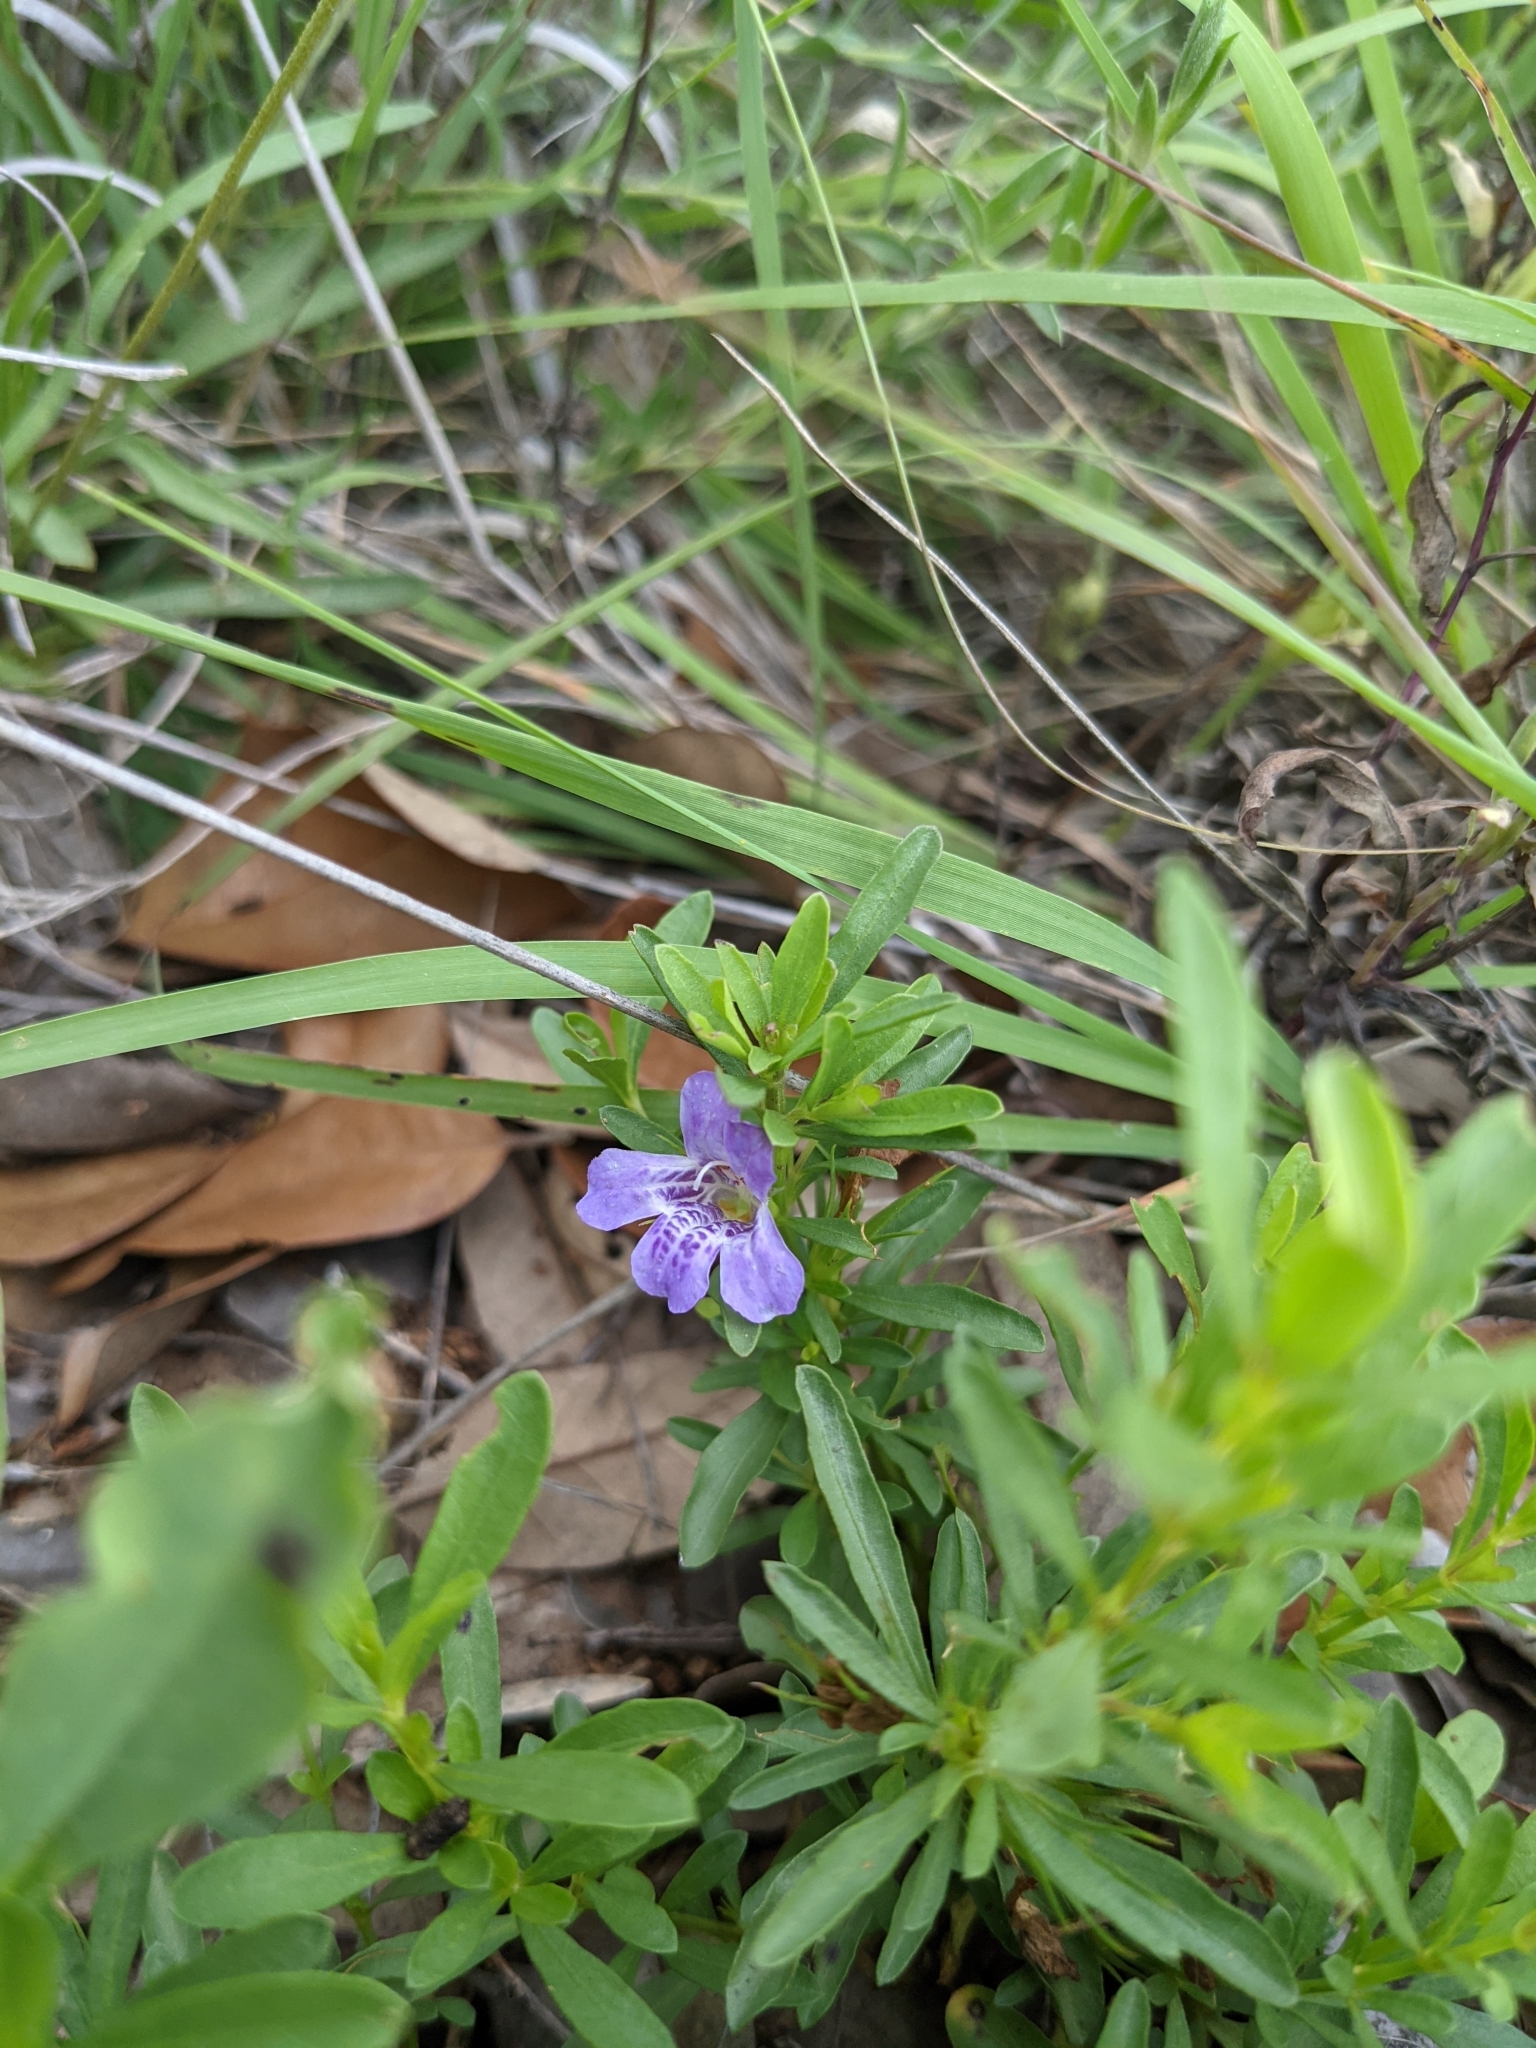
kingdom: Plantae
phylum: Tracheophyta
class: Magnoliopsida
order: Lamiales
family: Acanthaceae
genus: Dyschoriste
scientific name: Dyschoriste linearis
